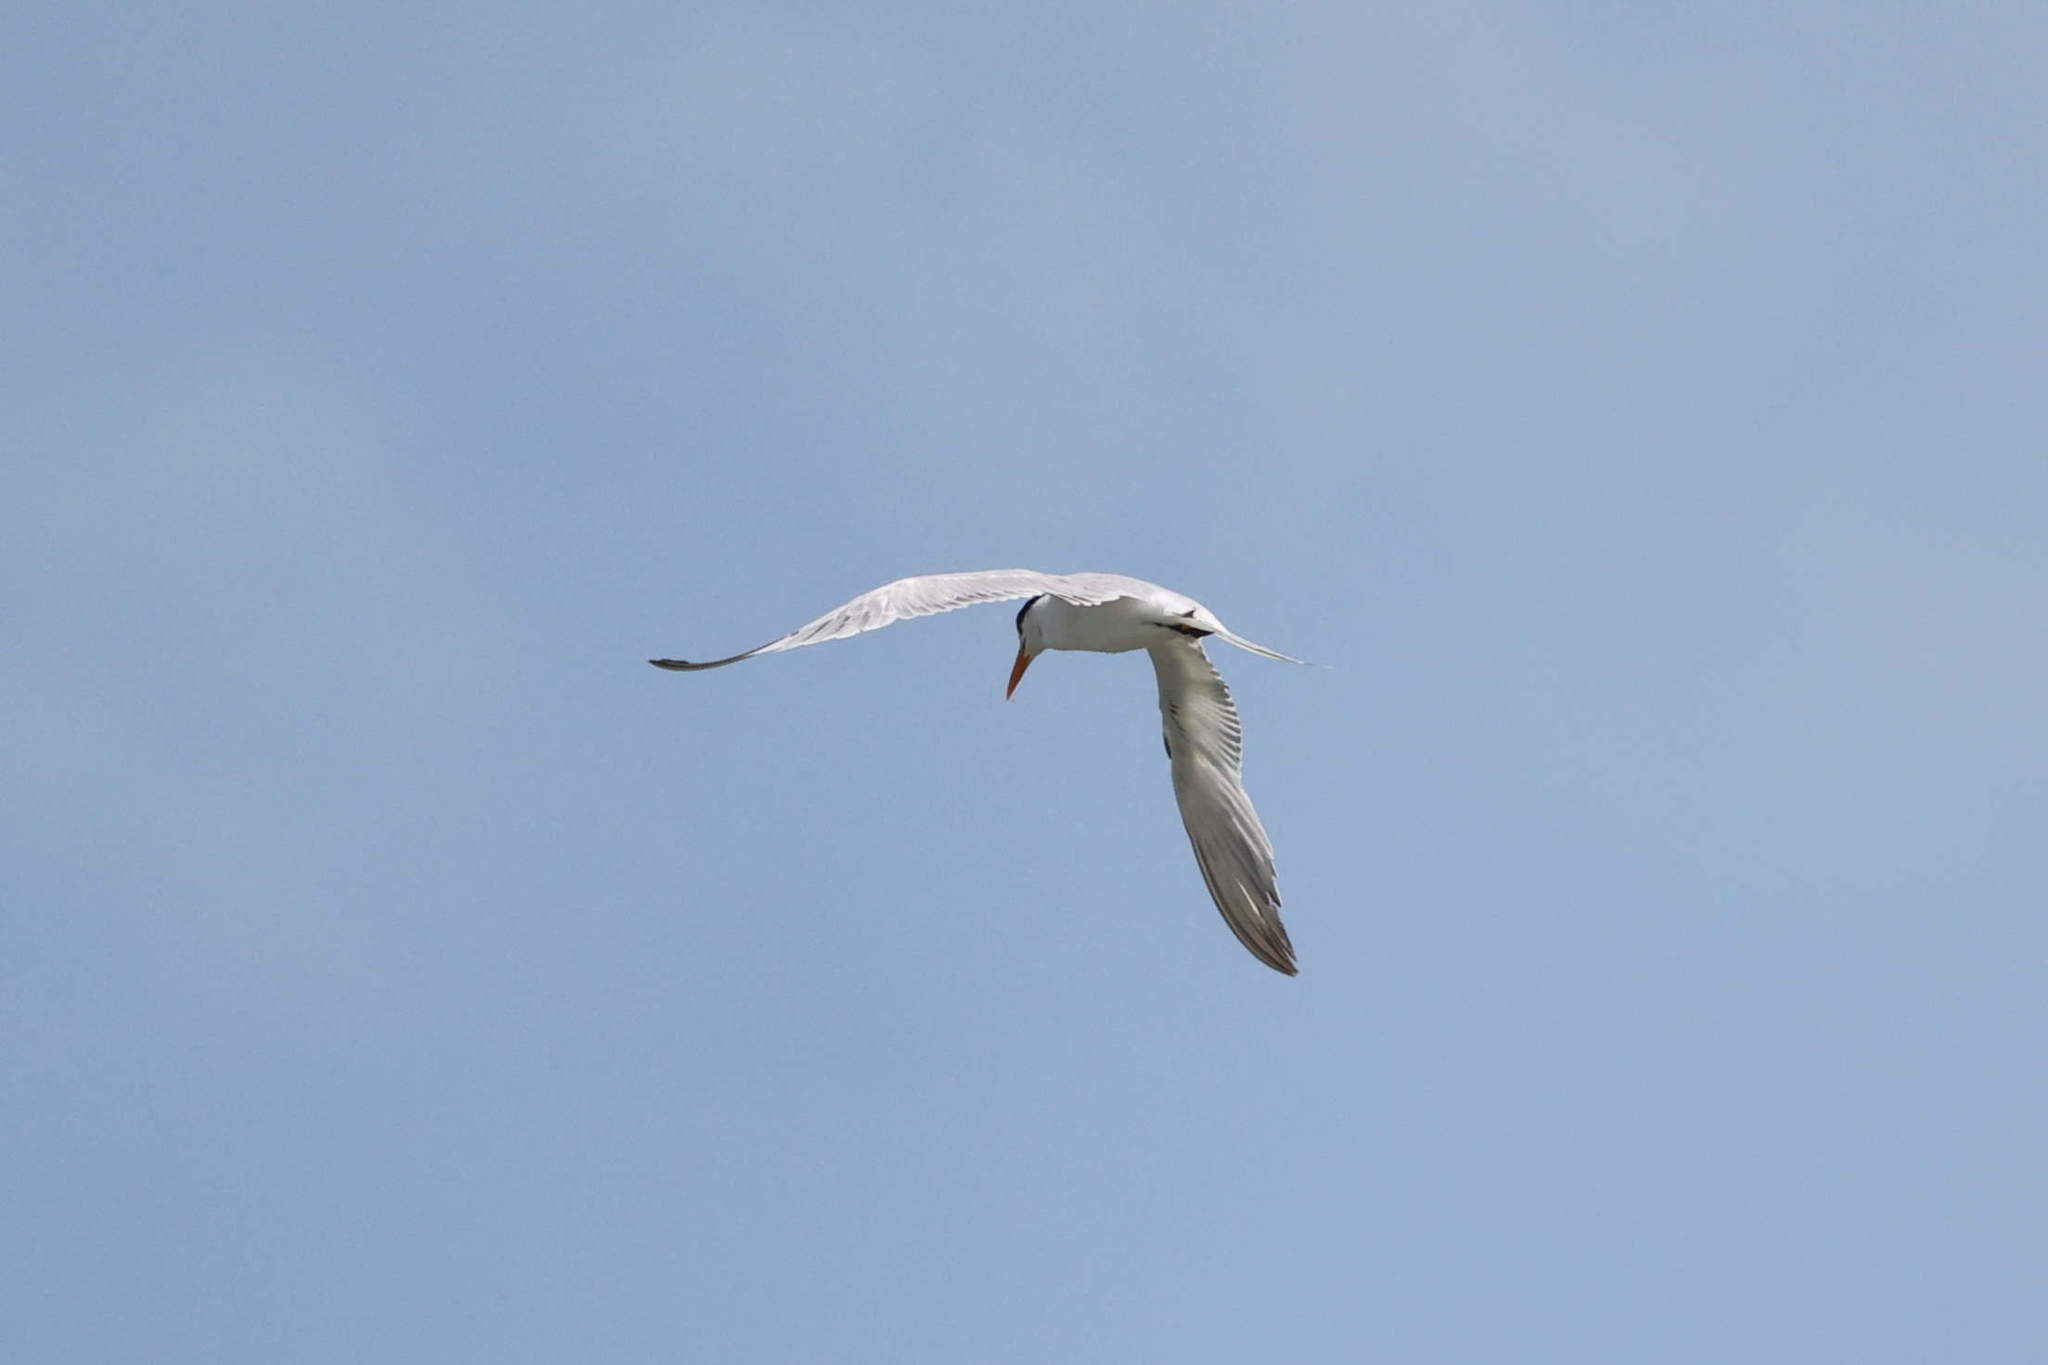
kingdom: Animalia
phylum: Chordata
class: Aves
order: Charadriiformes
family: Laridae
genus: Thalasseus
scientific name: Thalasseus maximus
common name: Royal tern
